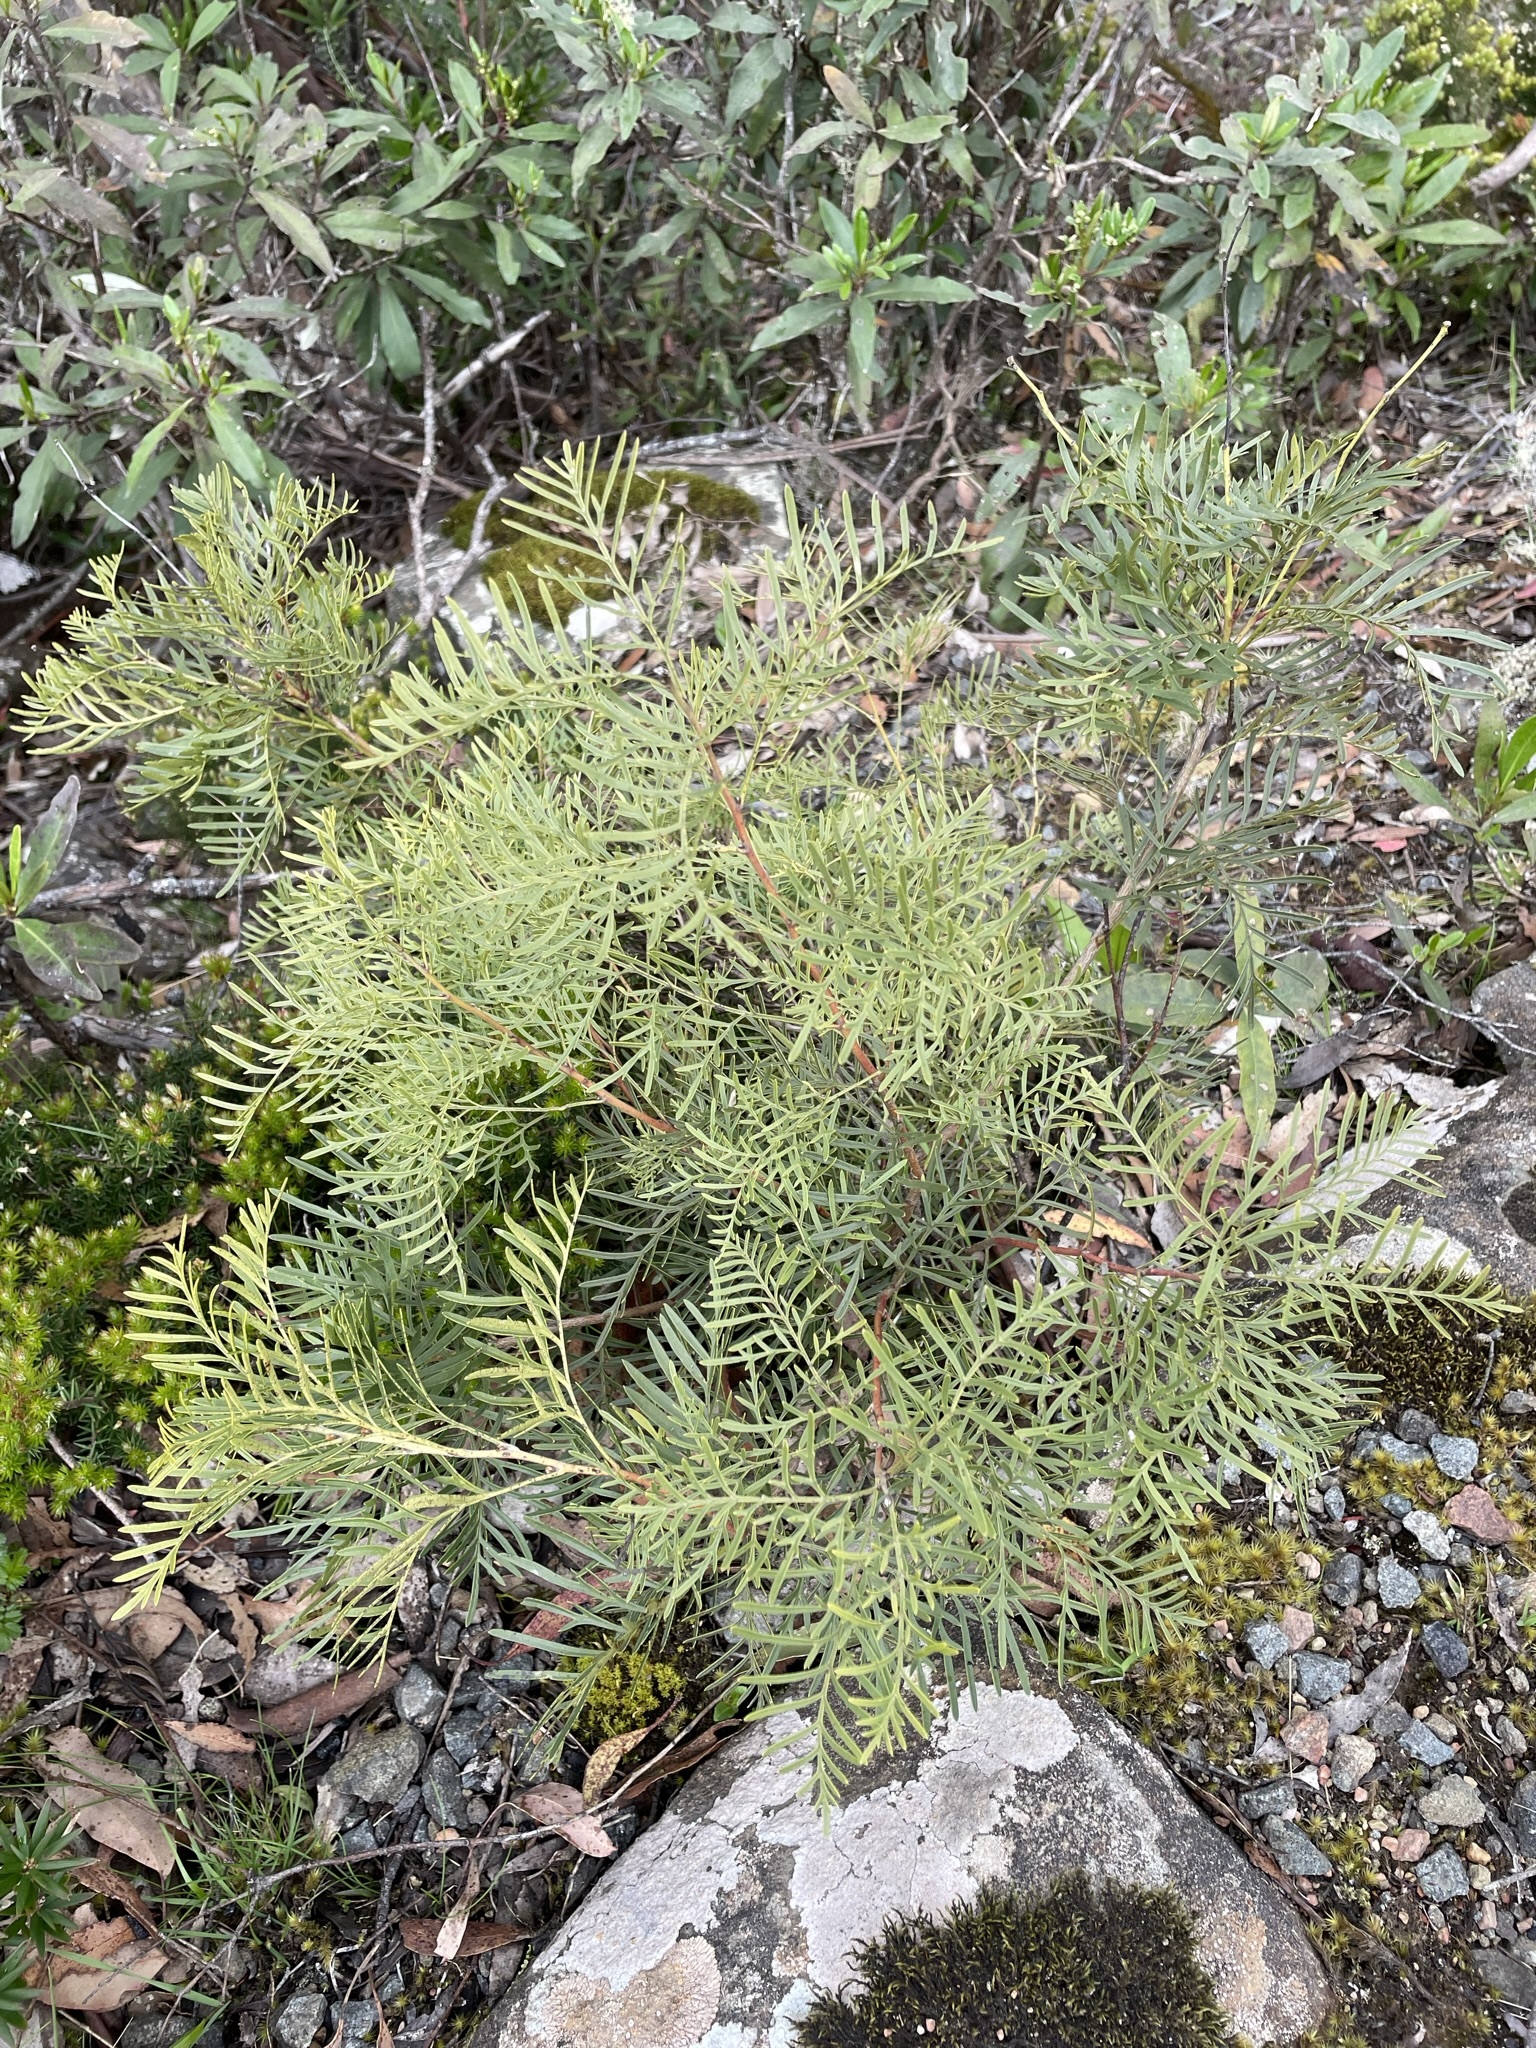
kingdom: Plantae
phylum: Tracheophyta
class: Magnoliopsida
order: Proteales
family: Proteaceae
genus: Lomatia
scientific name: Lomatia tinctoria
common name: Guitar plant
